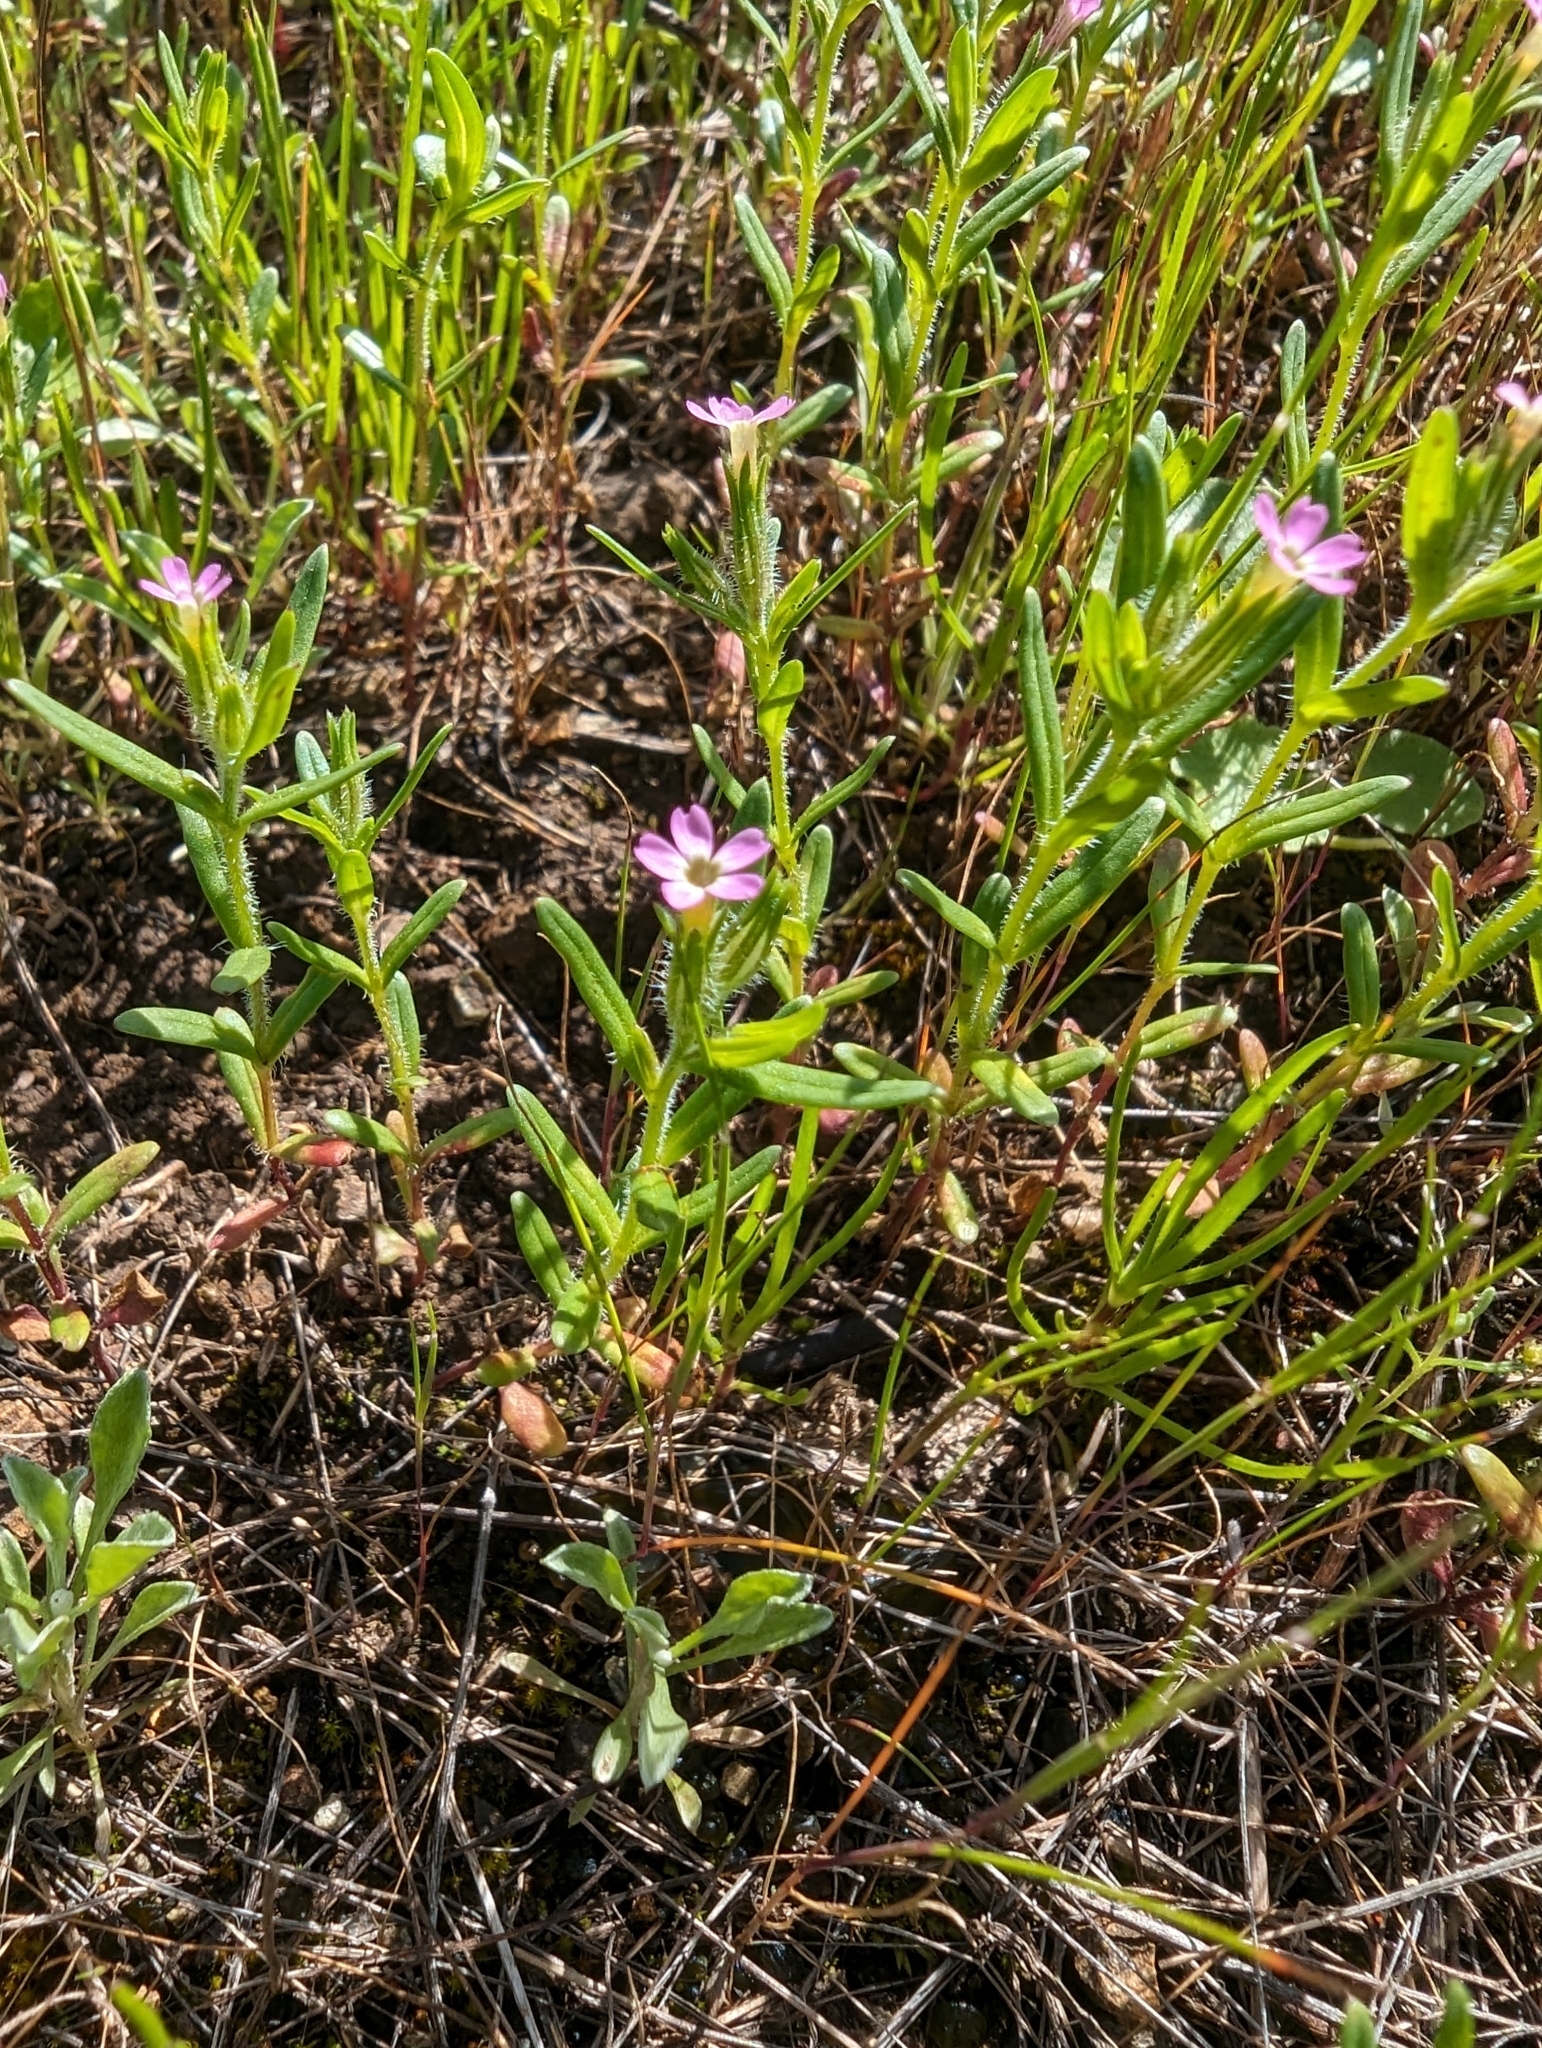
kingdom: Plantae
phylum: Tracheophyta
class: Magnoliopsida
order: Ericales
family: Polemoniaceae
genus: Phlox
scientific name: Phlox gracilis
